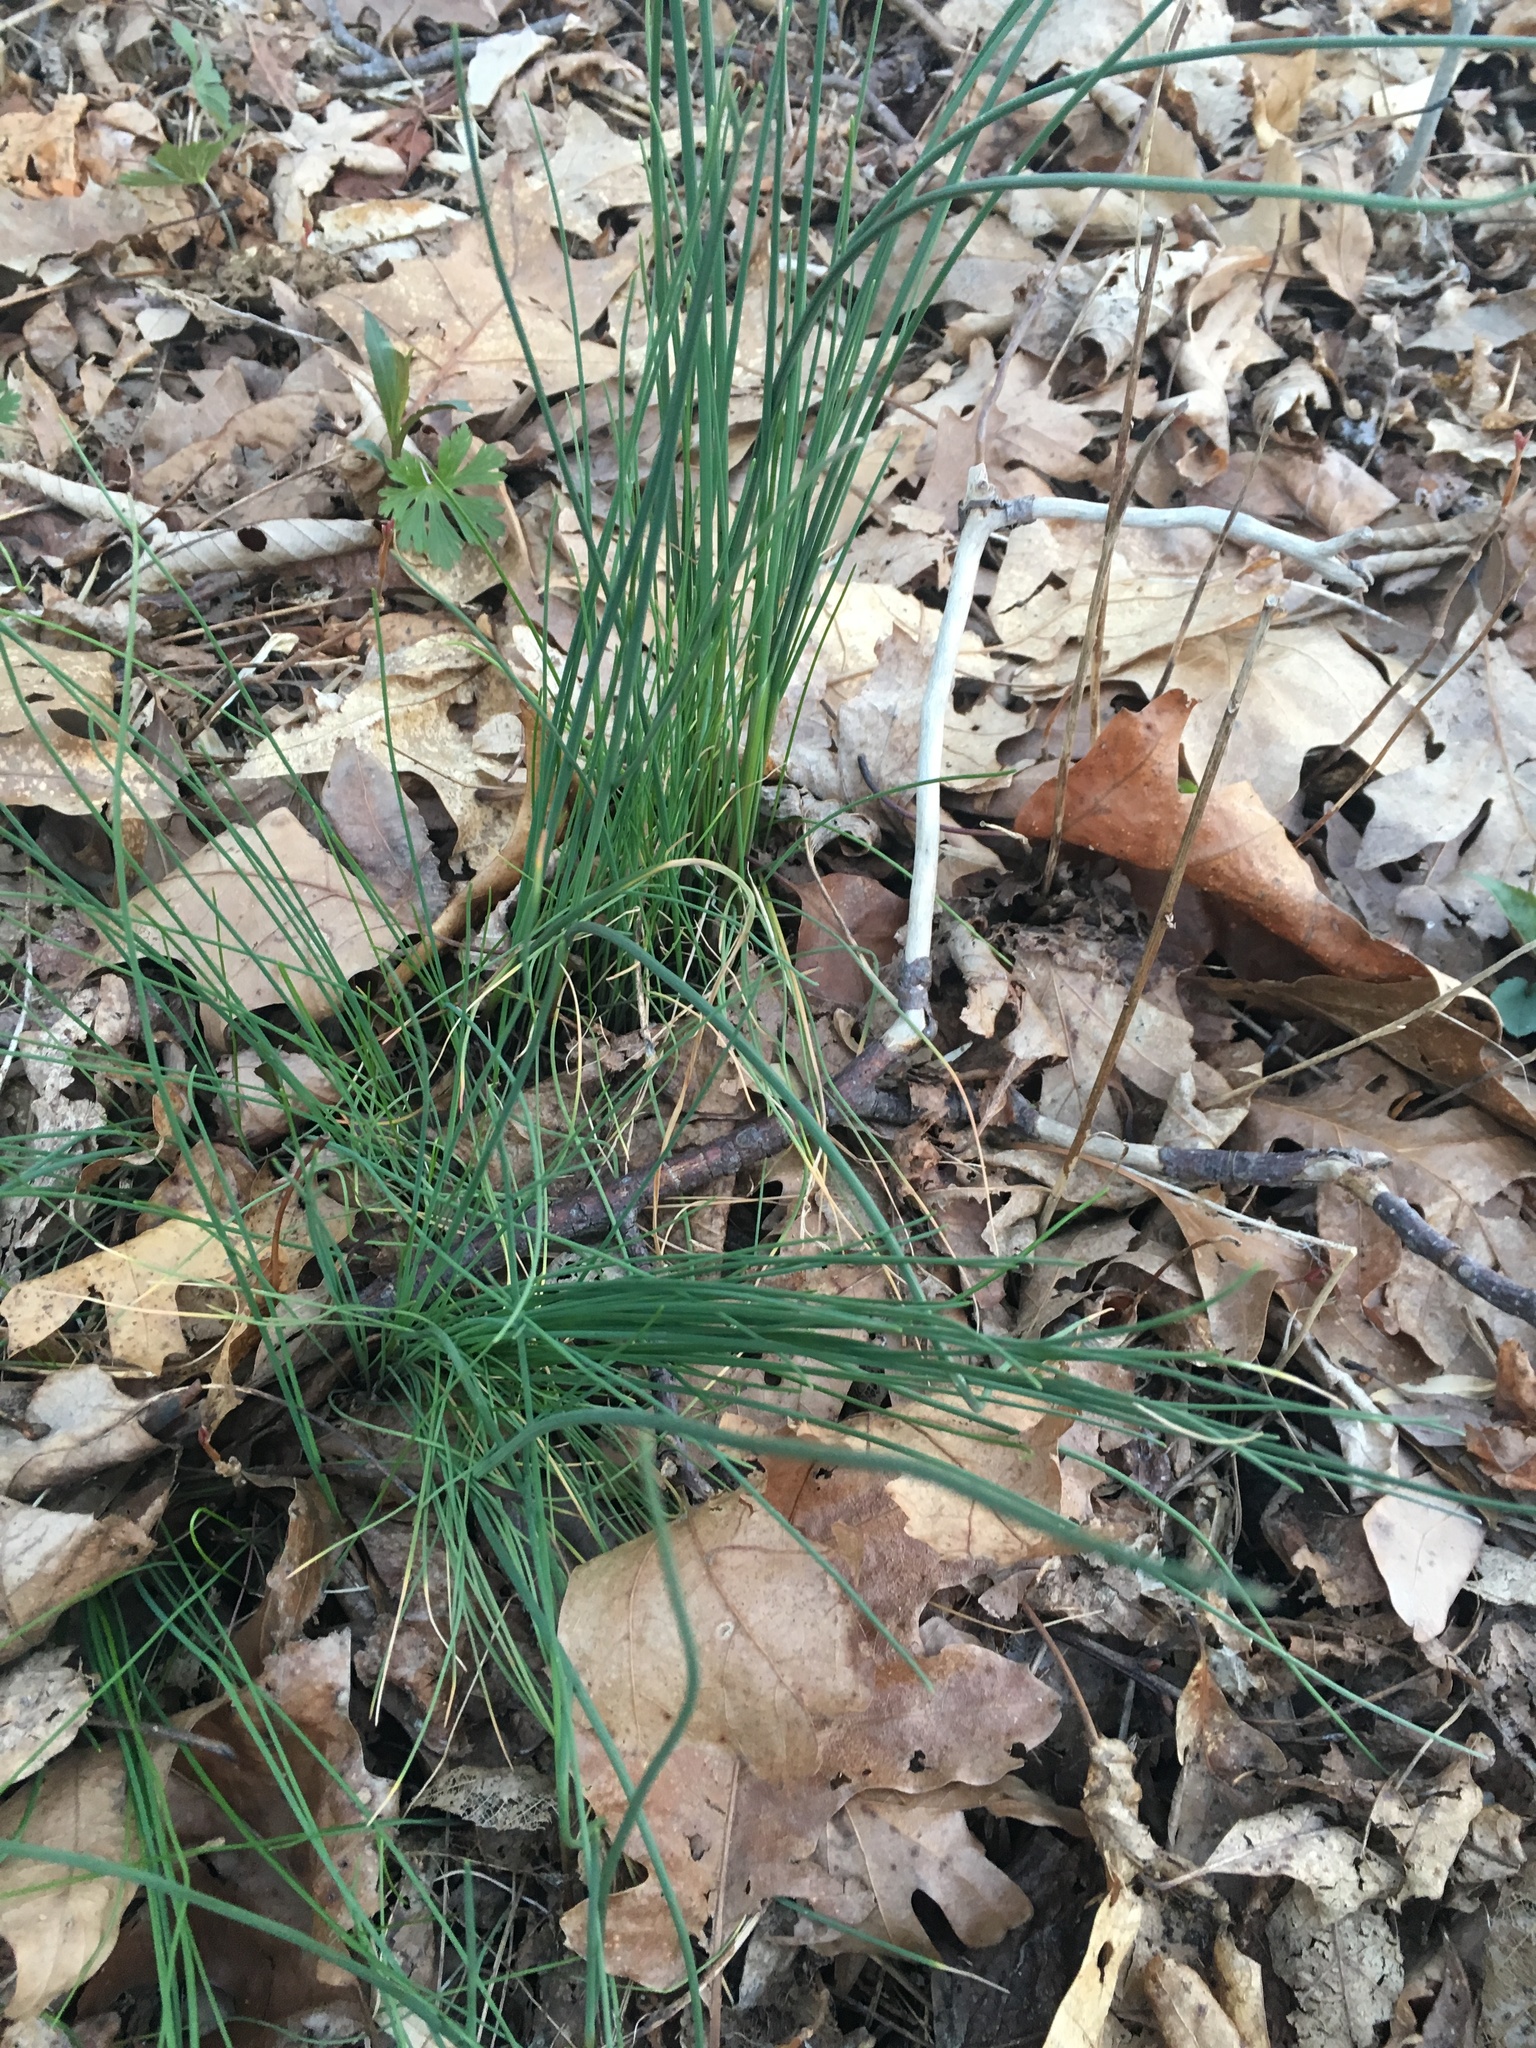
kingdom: Plantae
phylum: Tracheophyta
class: Liliopsida
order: Asparagales
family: Amaryllidaceae
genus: Allium
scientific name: Allium vineale
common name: Crow garlic
